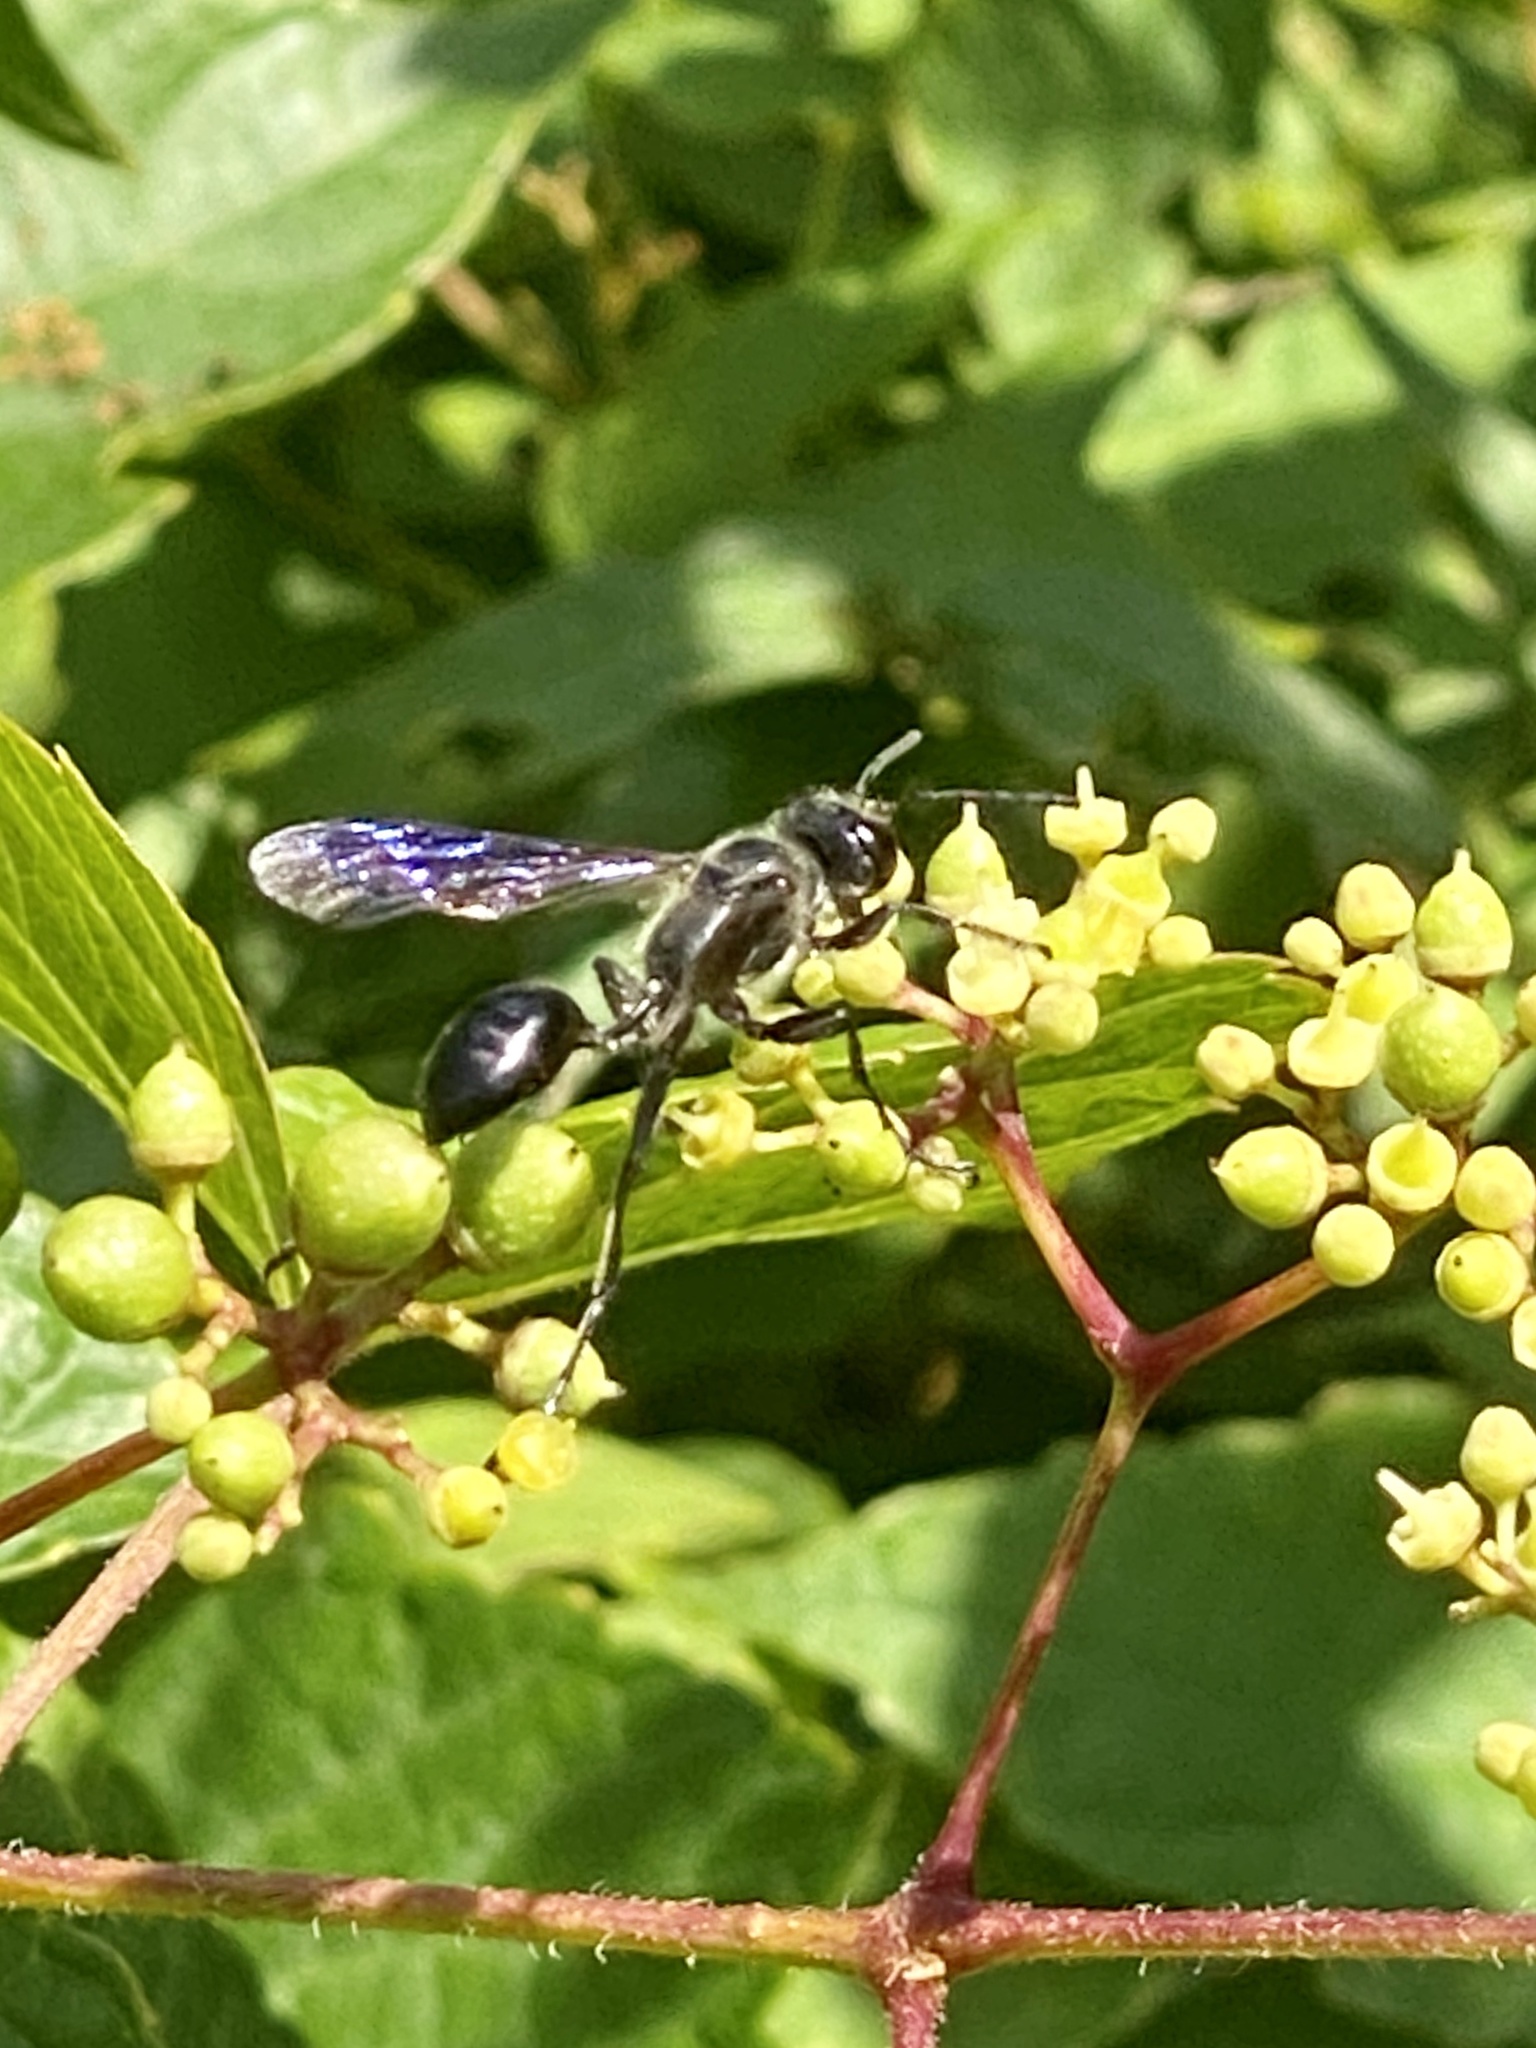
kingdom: Animalia
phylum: Arthropoda
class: Insecta
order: Hymenoptera
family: Sphecidae
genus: Isodontia
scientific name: Isodontia
